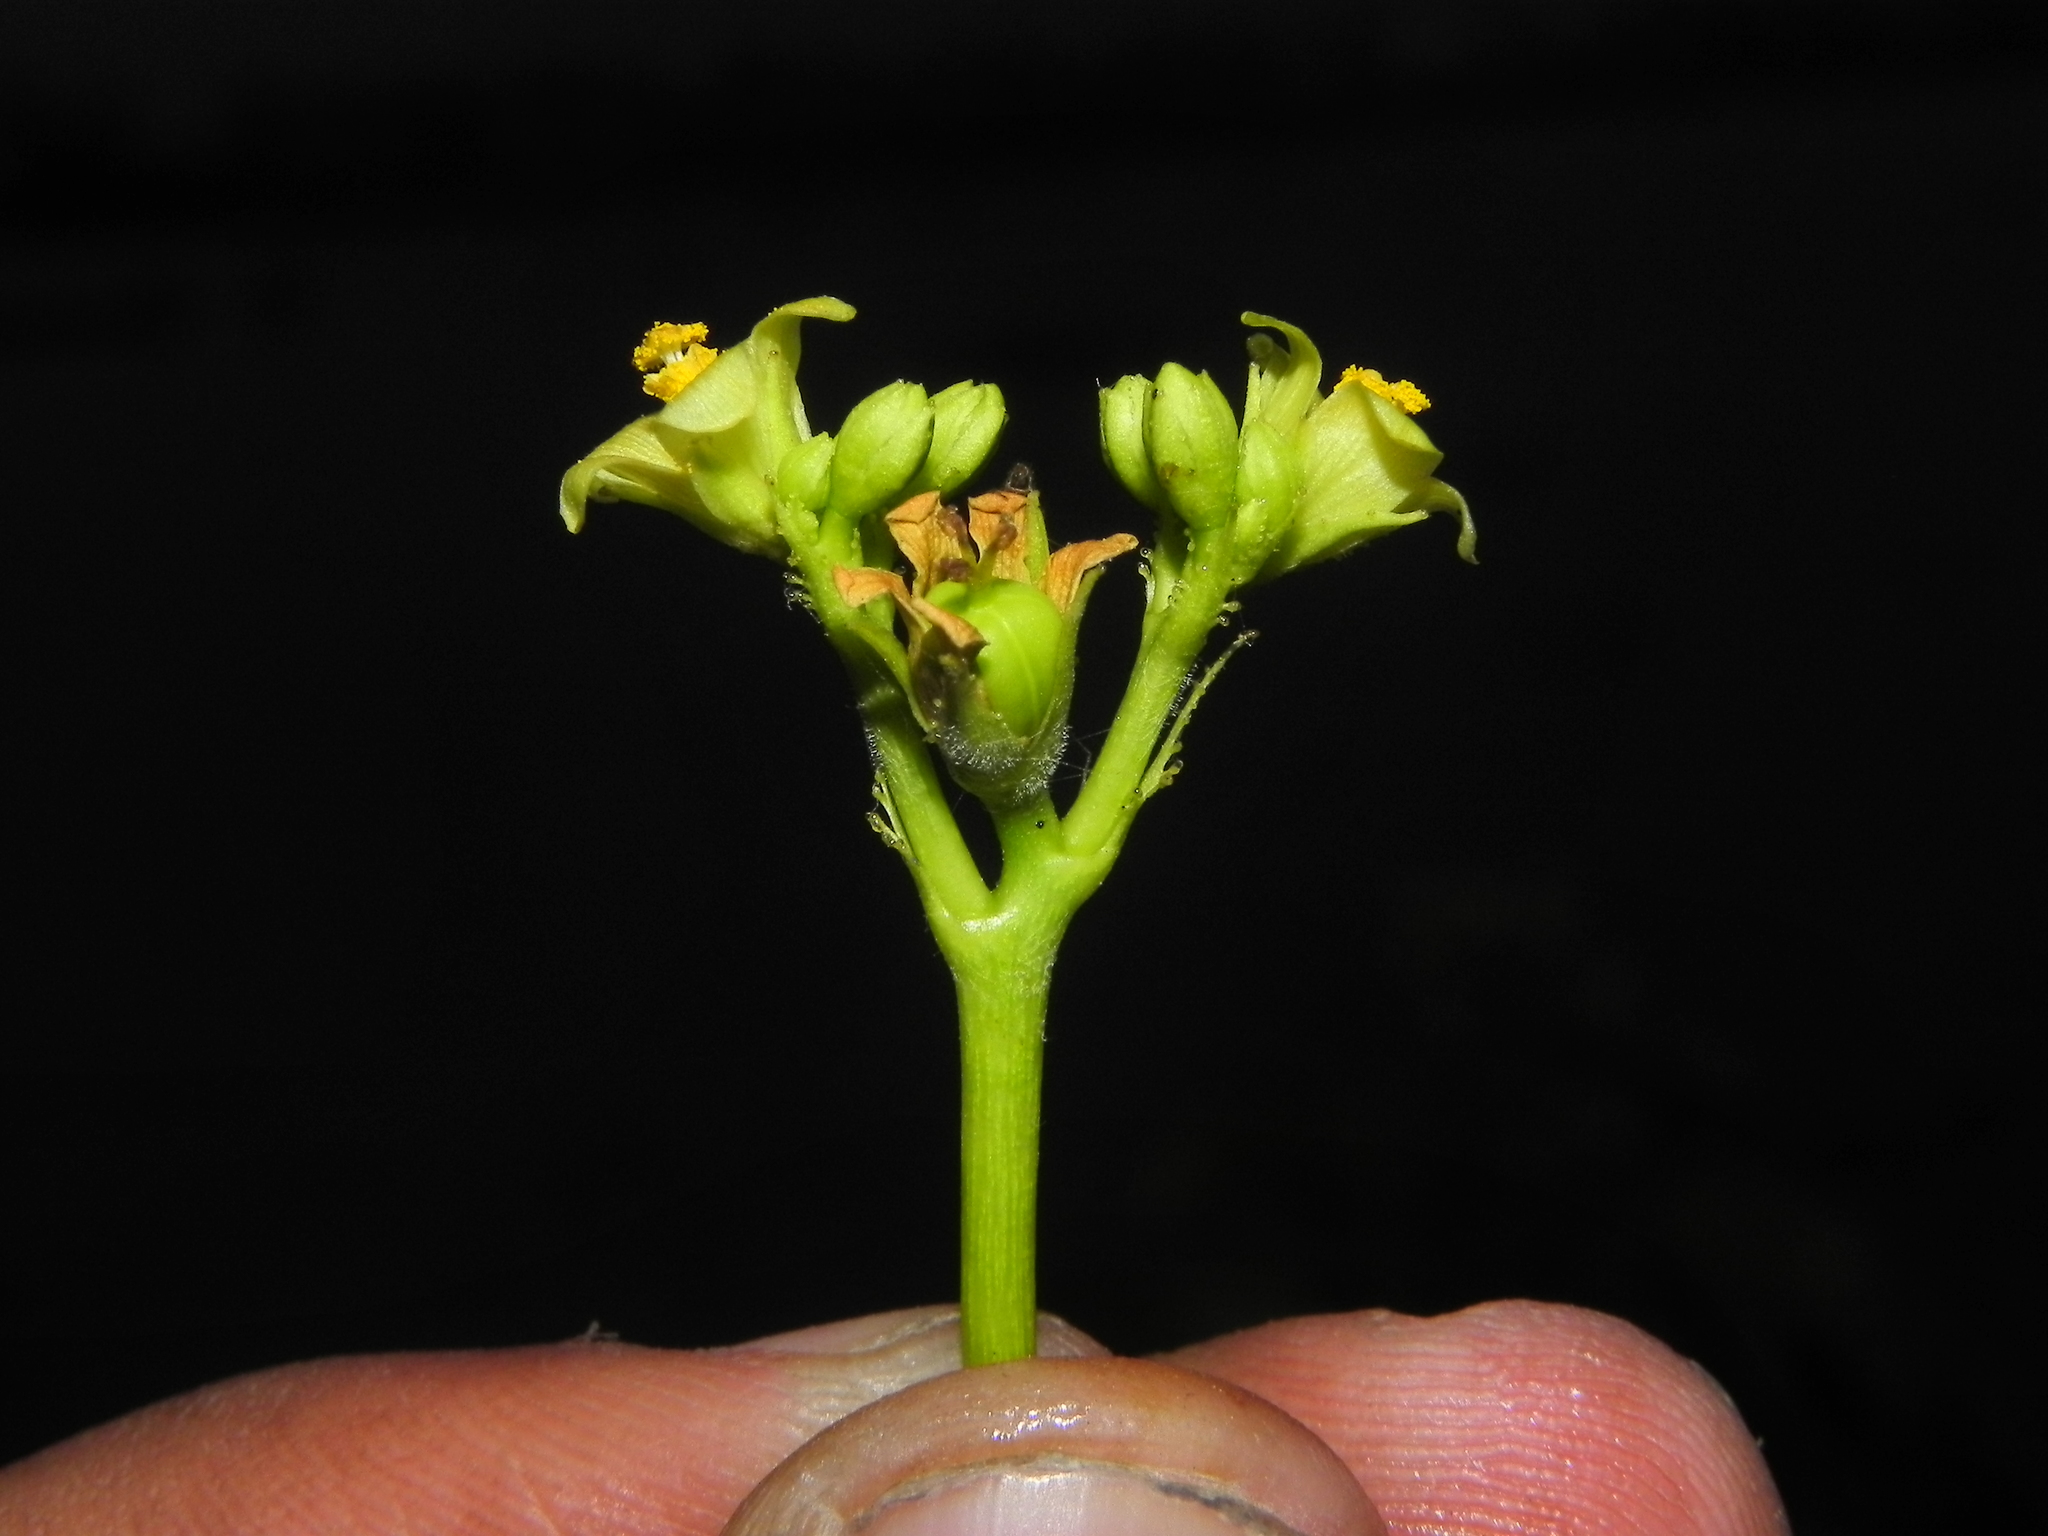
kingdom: Plantae
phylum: Tracheophyta
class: Magnoliopsida
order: Malpighiales
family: Euphorbiaceae
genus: Jatropha
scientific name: Jatropha glandulifera
